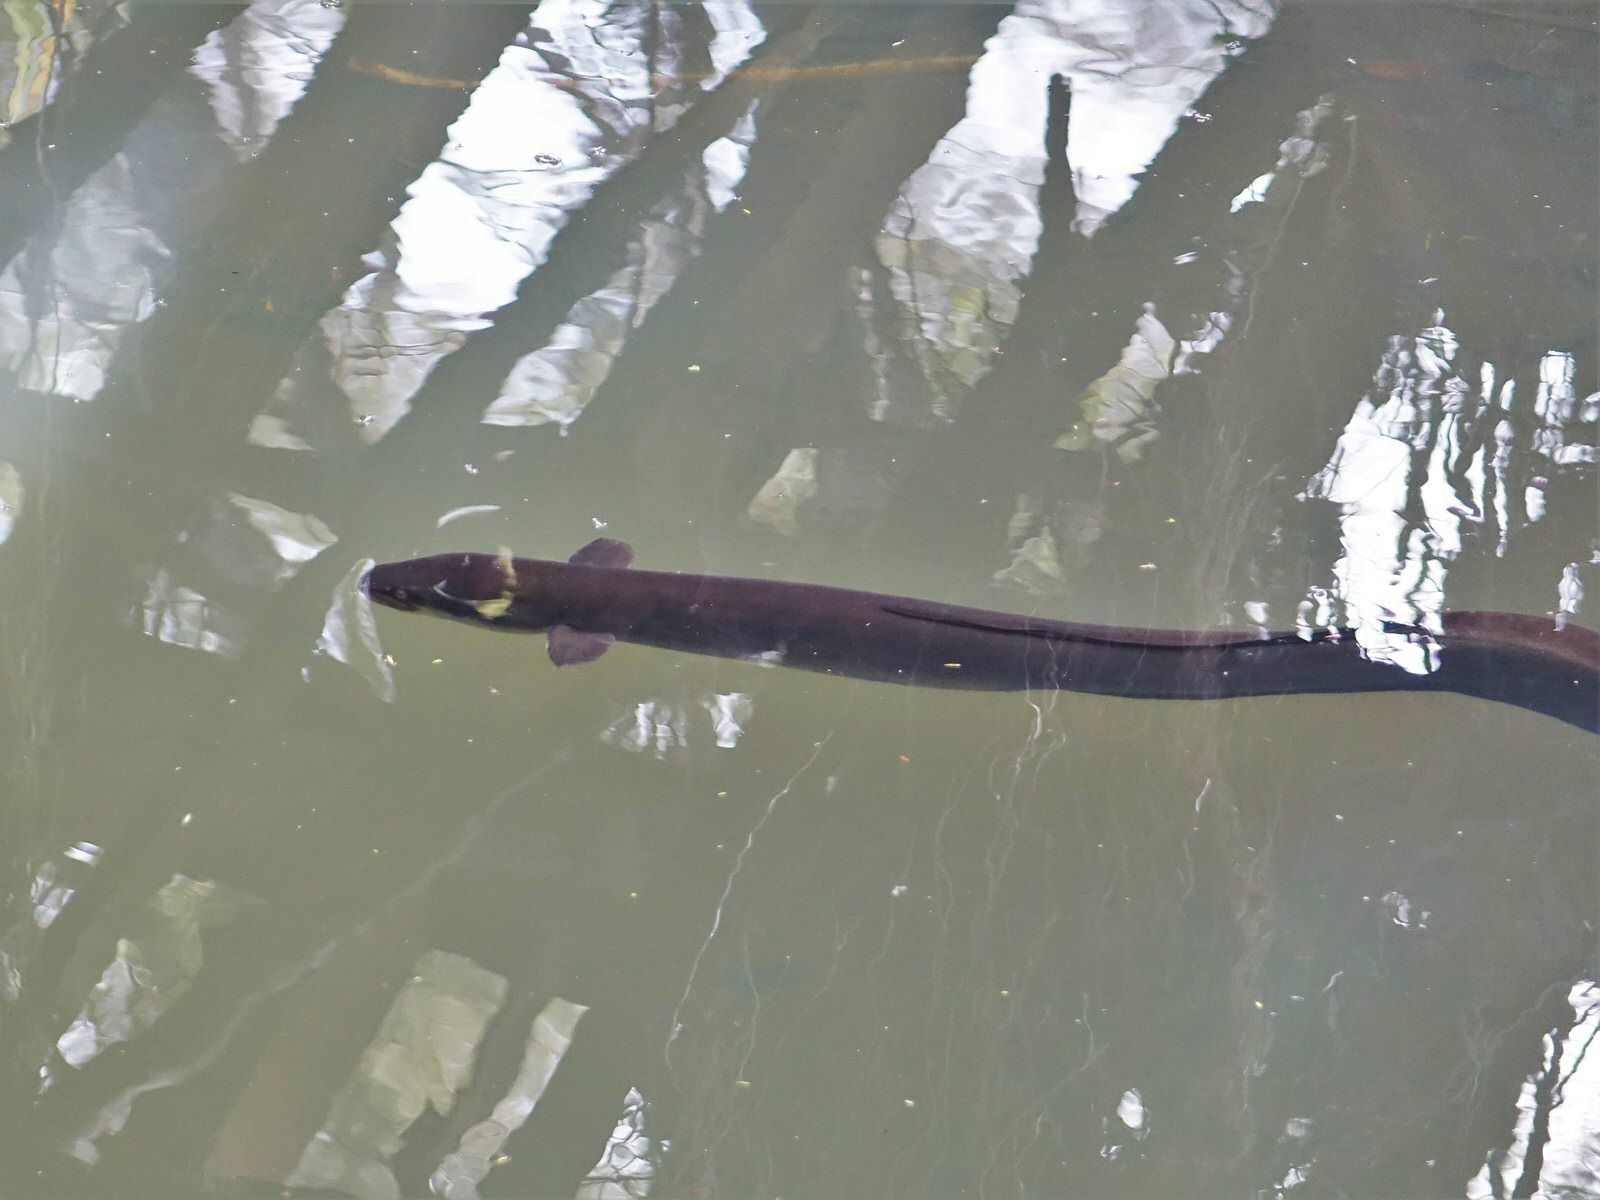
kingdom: Animalia
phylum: Chordata
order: Anguilliformes
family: Anguillidae
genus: Anguilla
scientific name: Anguilla dieffenbachii
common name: New zealand longfin eel
